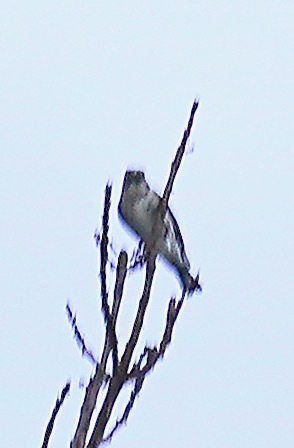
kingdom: Animalia
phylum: Chordata
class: Aves
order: Passeriformes
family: Parulidae
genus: Setophaga
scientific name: Setophaga coronata
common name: Myrtle warbler
